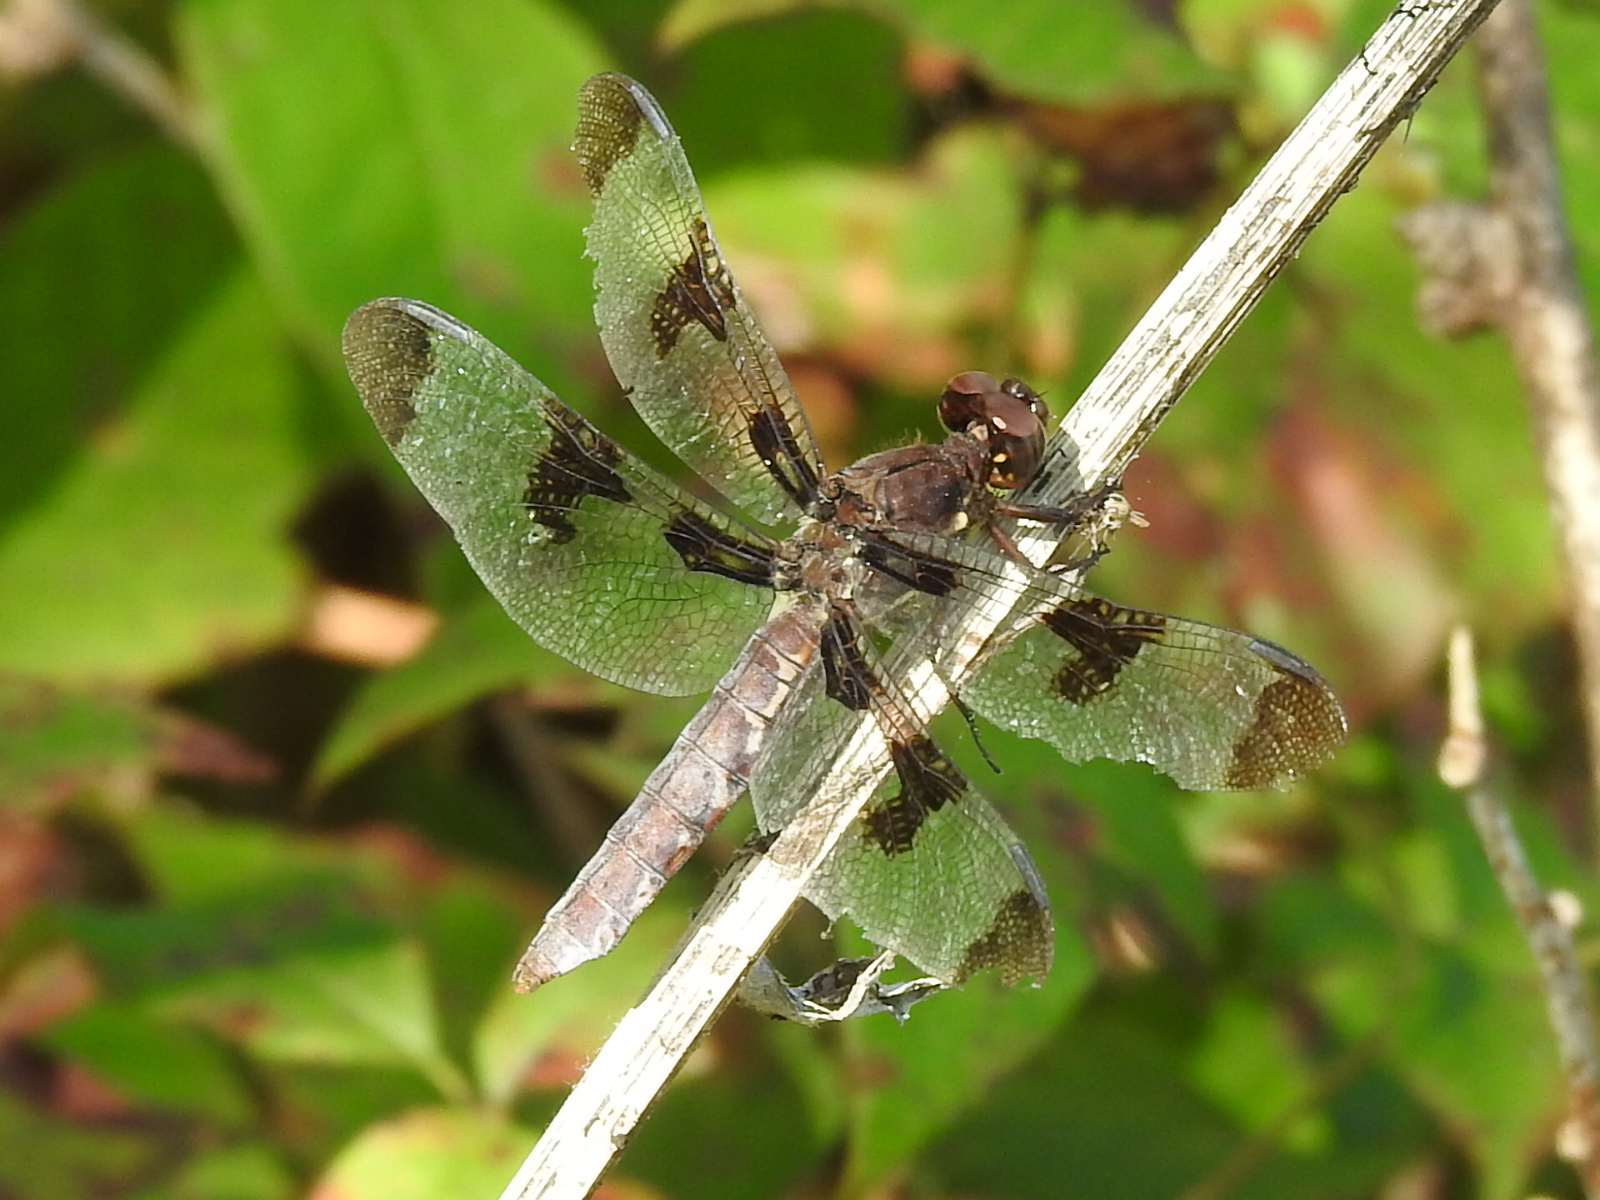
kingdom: Animalia
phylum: Arthropoda
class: Insecta
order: Odonata
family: Libellulidae
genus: Plathemis
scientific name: Plathemis lydia
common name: Common whitetail
